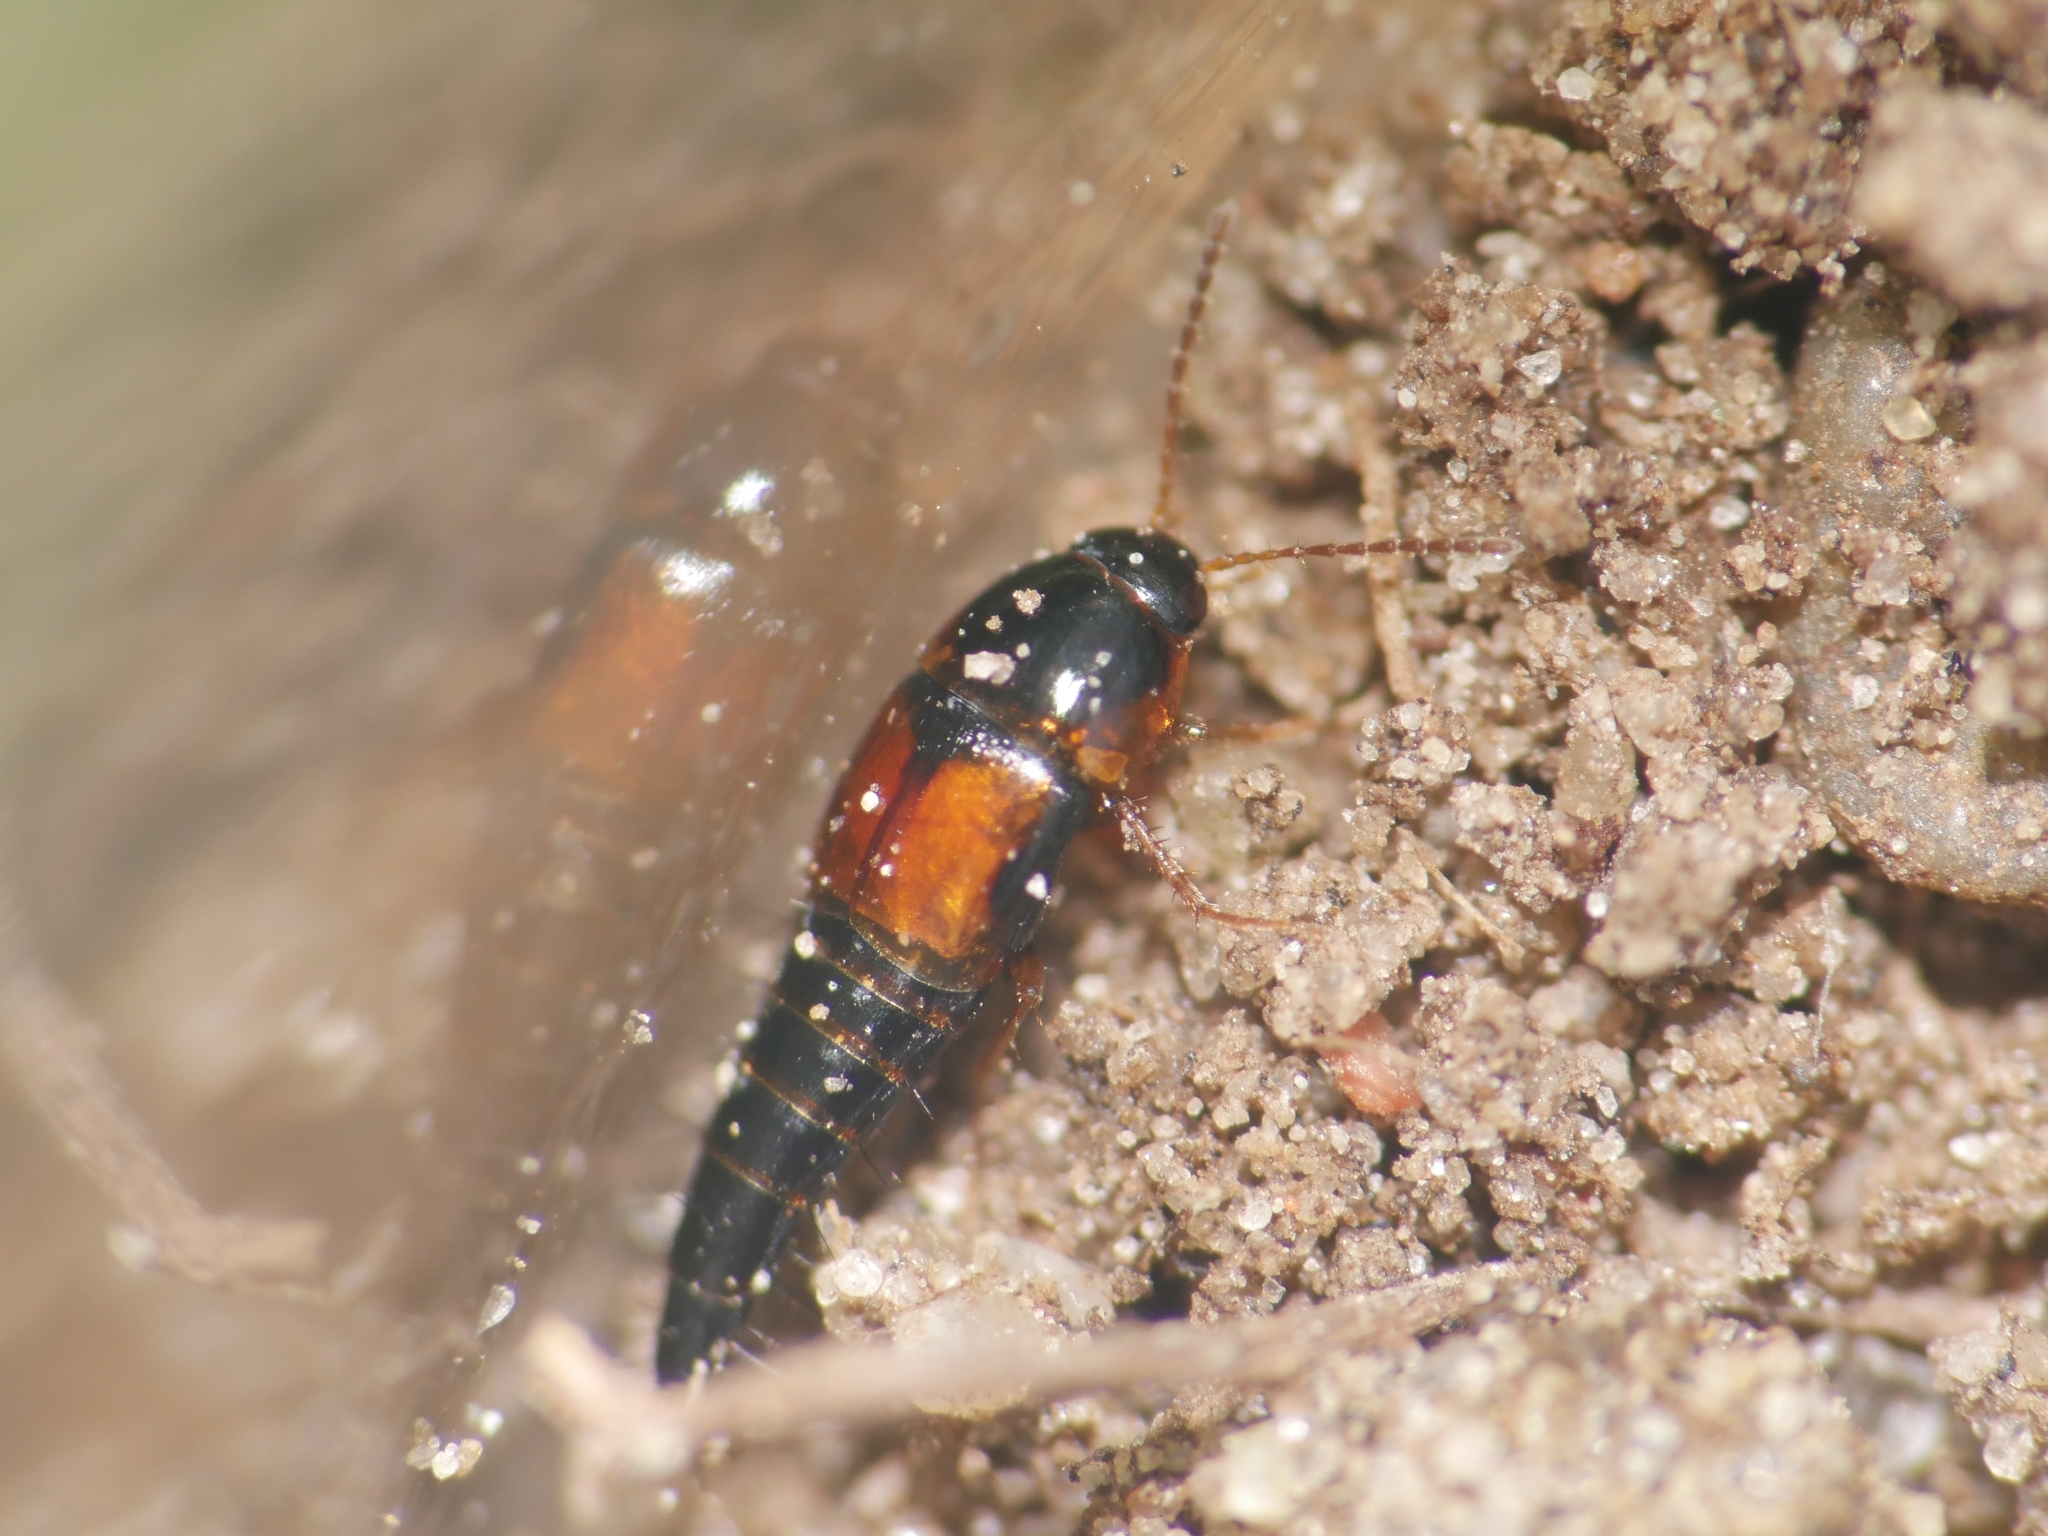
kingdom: Animalia
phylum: Arthropoda
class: Insecta
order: Coleoptera
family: Staphylinidae
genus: Tachyporus
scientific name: Tachyporus hypnorum
